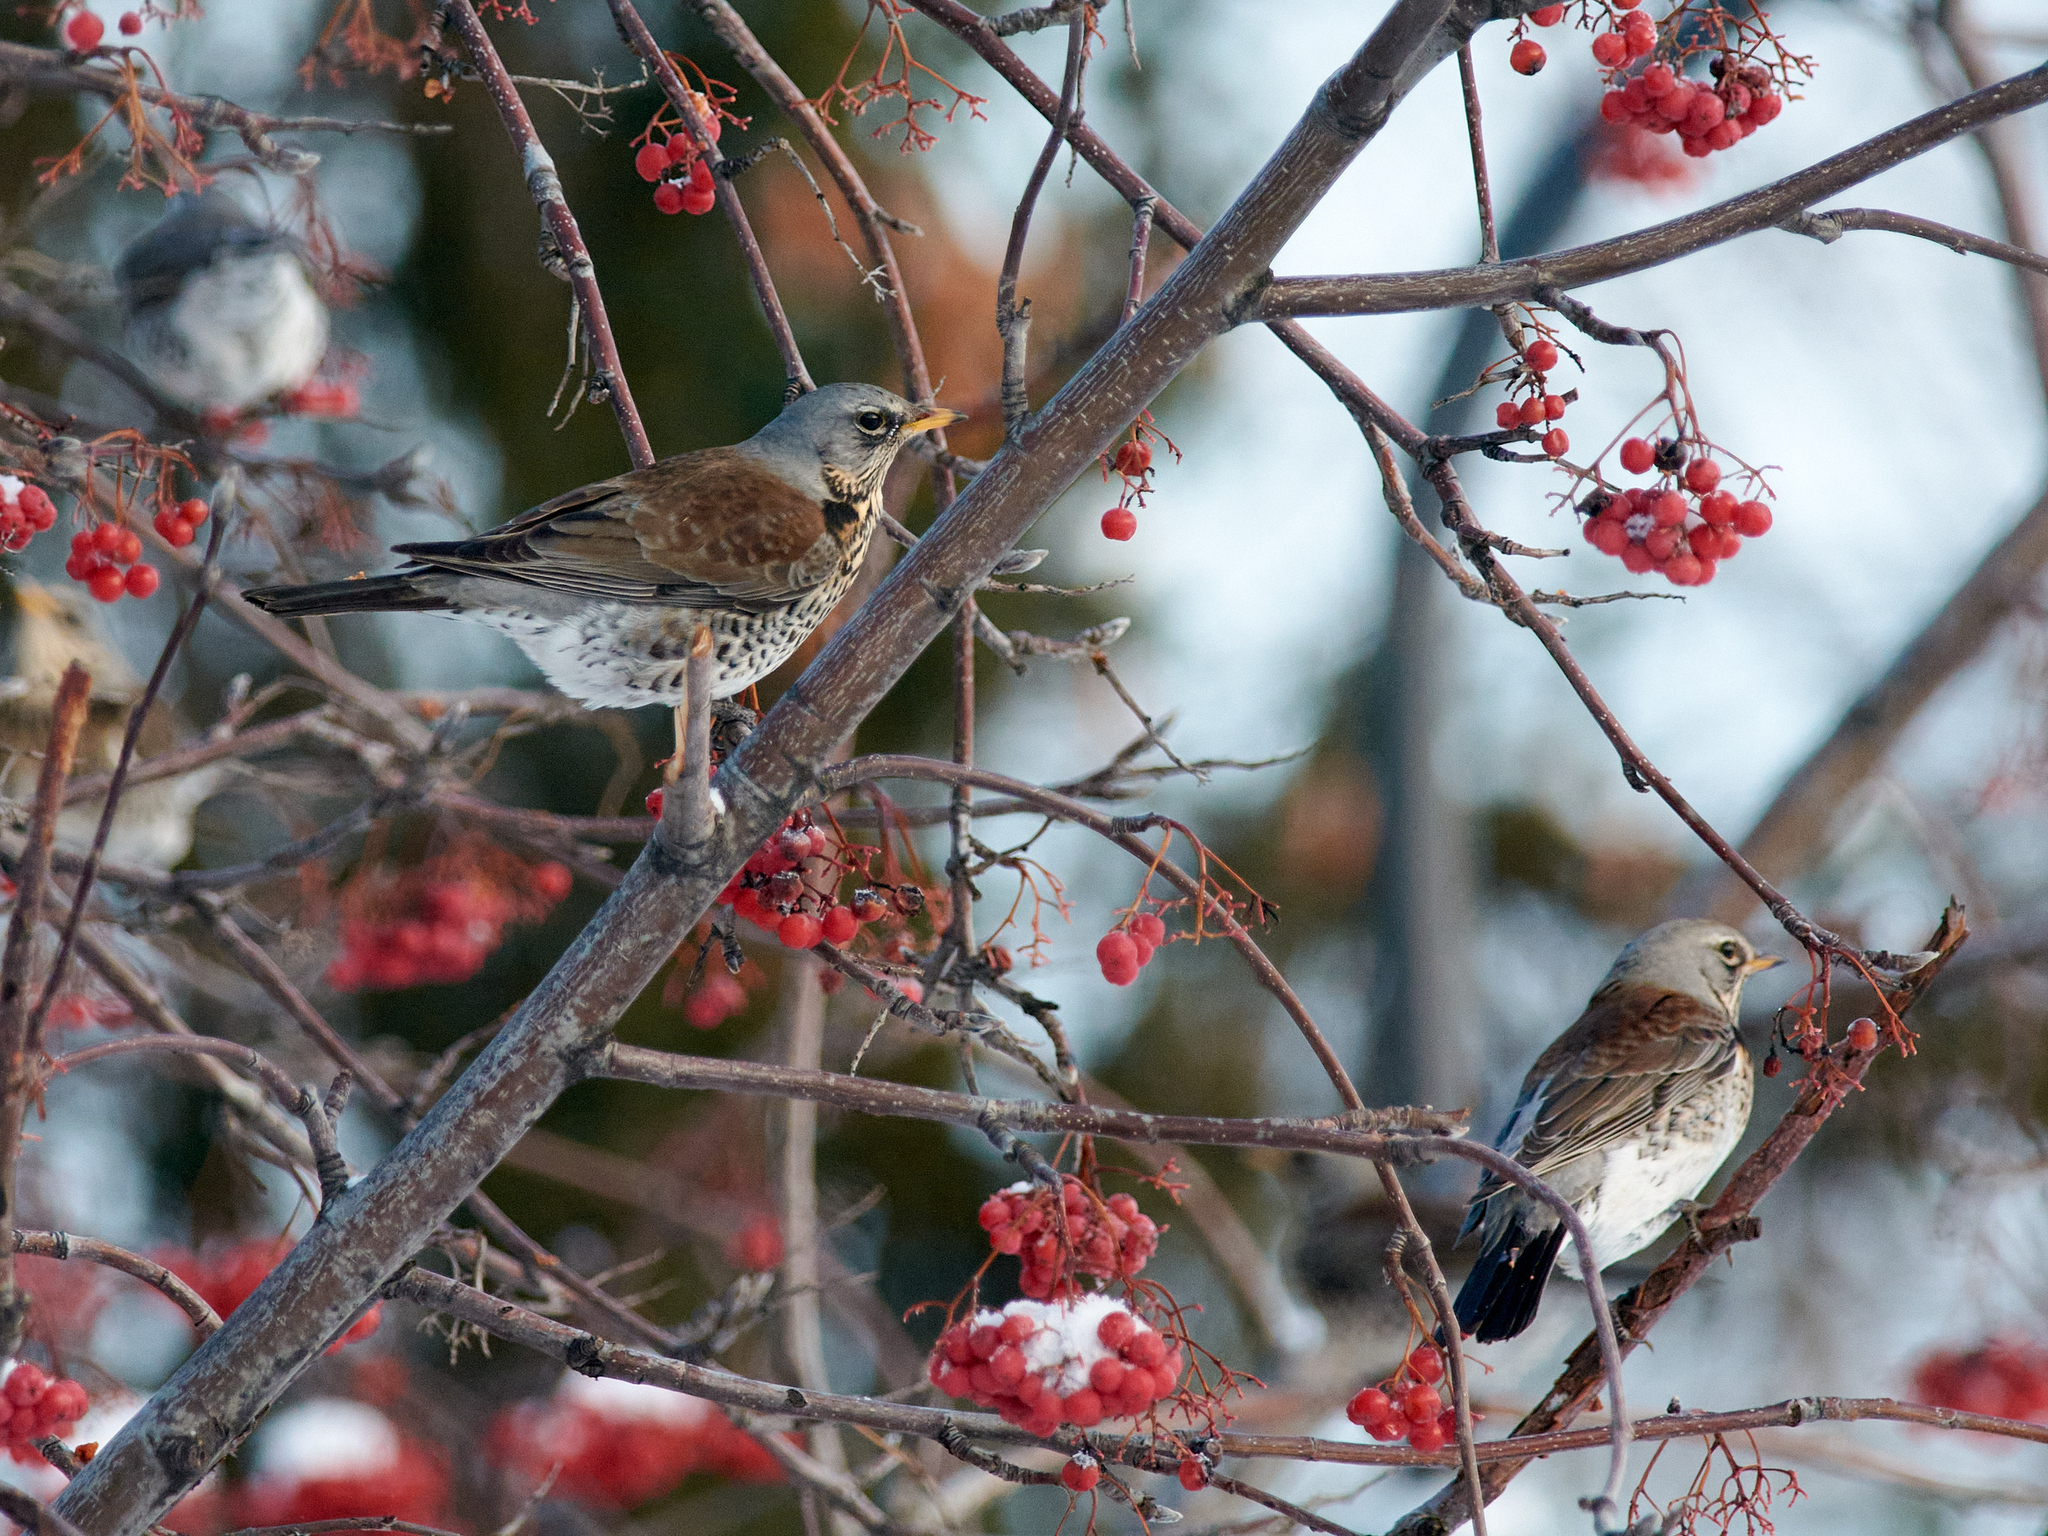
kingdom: Animalia
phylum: Chordata
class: Aves
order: Passeriformes
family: Turdidae
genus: Turdus
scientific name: Turdus pilaris
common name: Fieldfare
